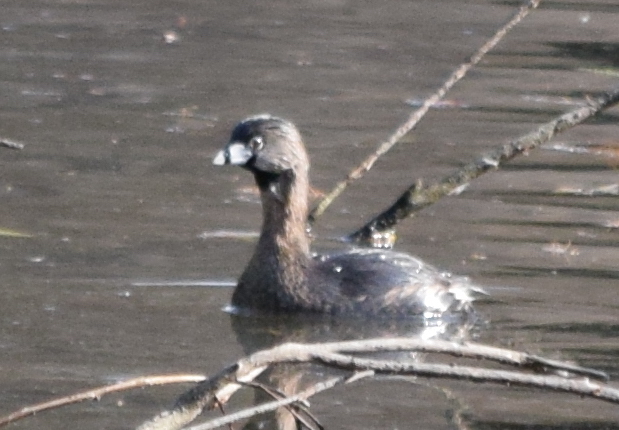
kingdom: Animalia
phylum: Chordata
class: Aves
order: Podicipediformes
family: Podicipedidae
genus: Podilymbus
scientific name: Podilymbus podiceps
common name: Pied-billed grebe
